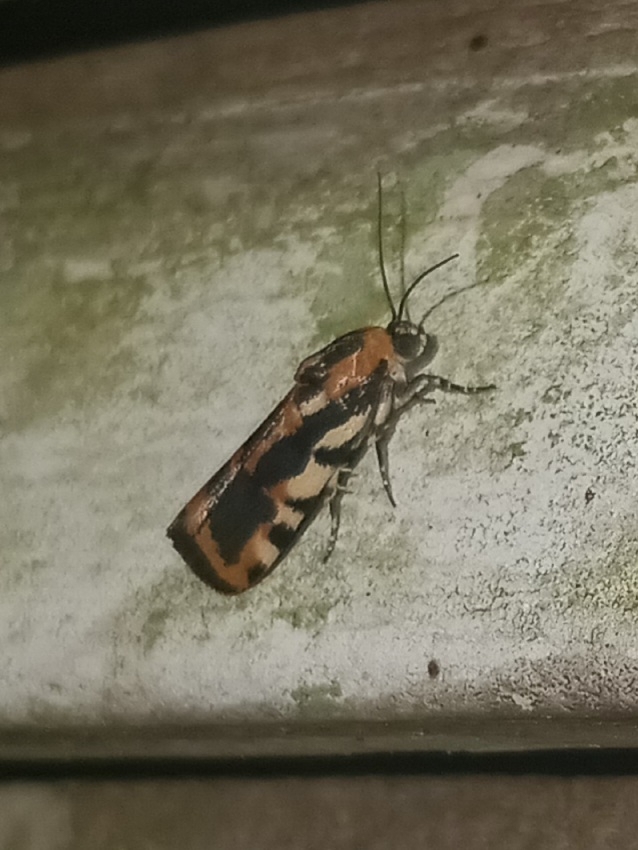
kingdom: Animalia
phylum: Arthropoda
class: Insecta
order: Lepidoptera
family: Noctuidae
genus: Acontia
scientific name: Acontia leo
